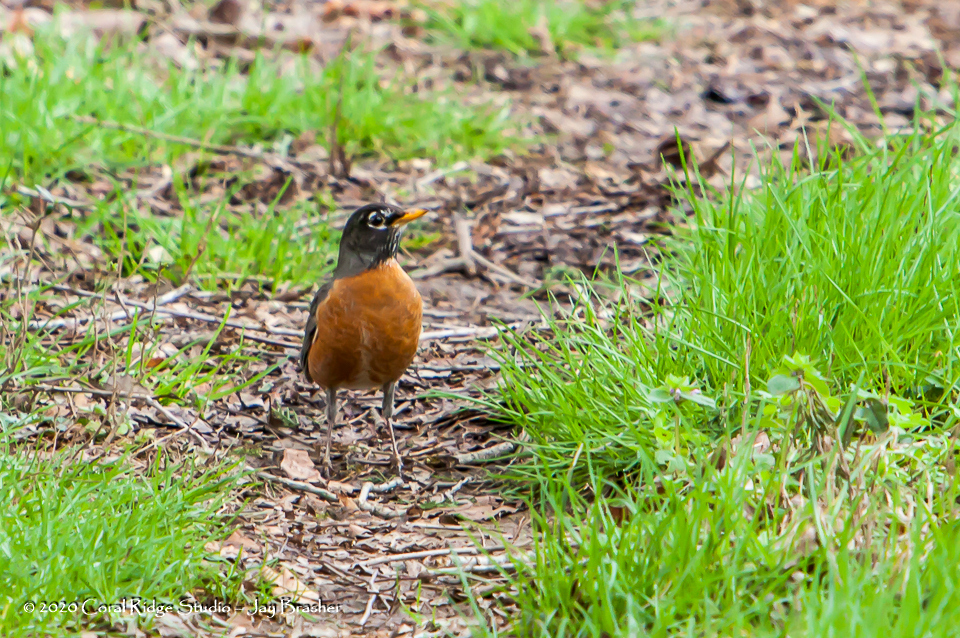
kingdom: Animalia
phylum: Chordata
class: Aves
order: Passeriformes
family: Turdidae
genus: Turdus
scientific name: Turdus migratorius
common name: American robin
